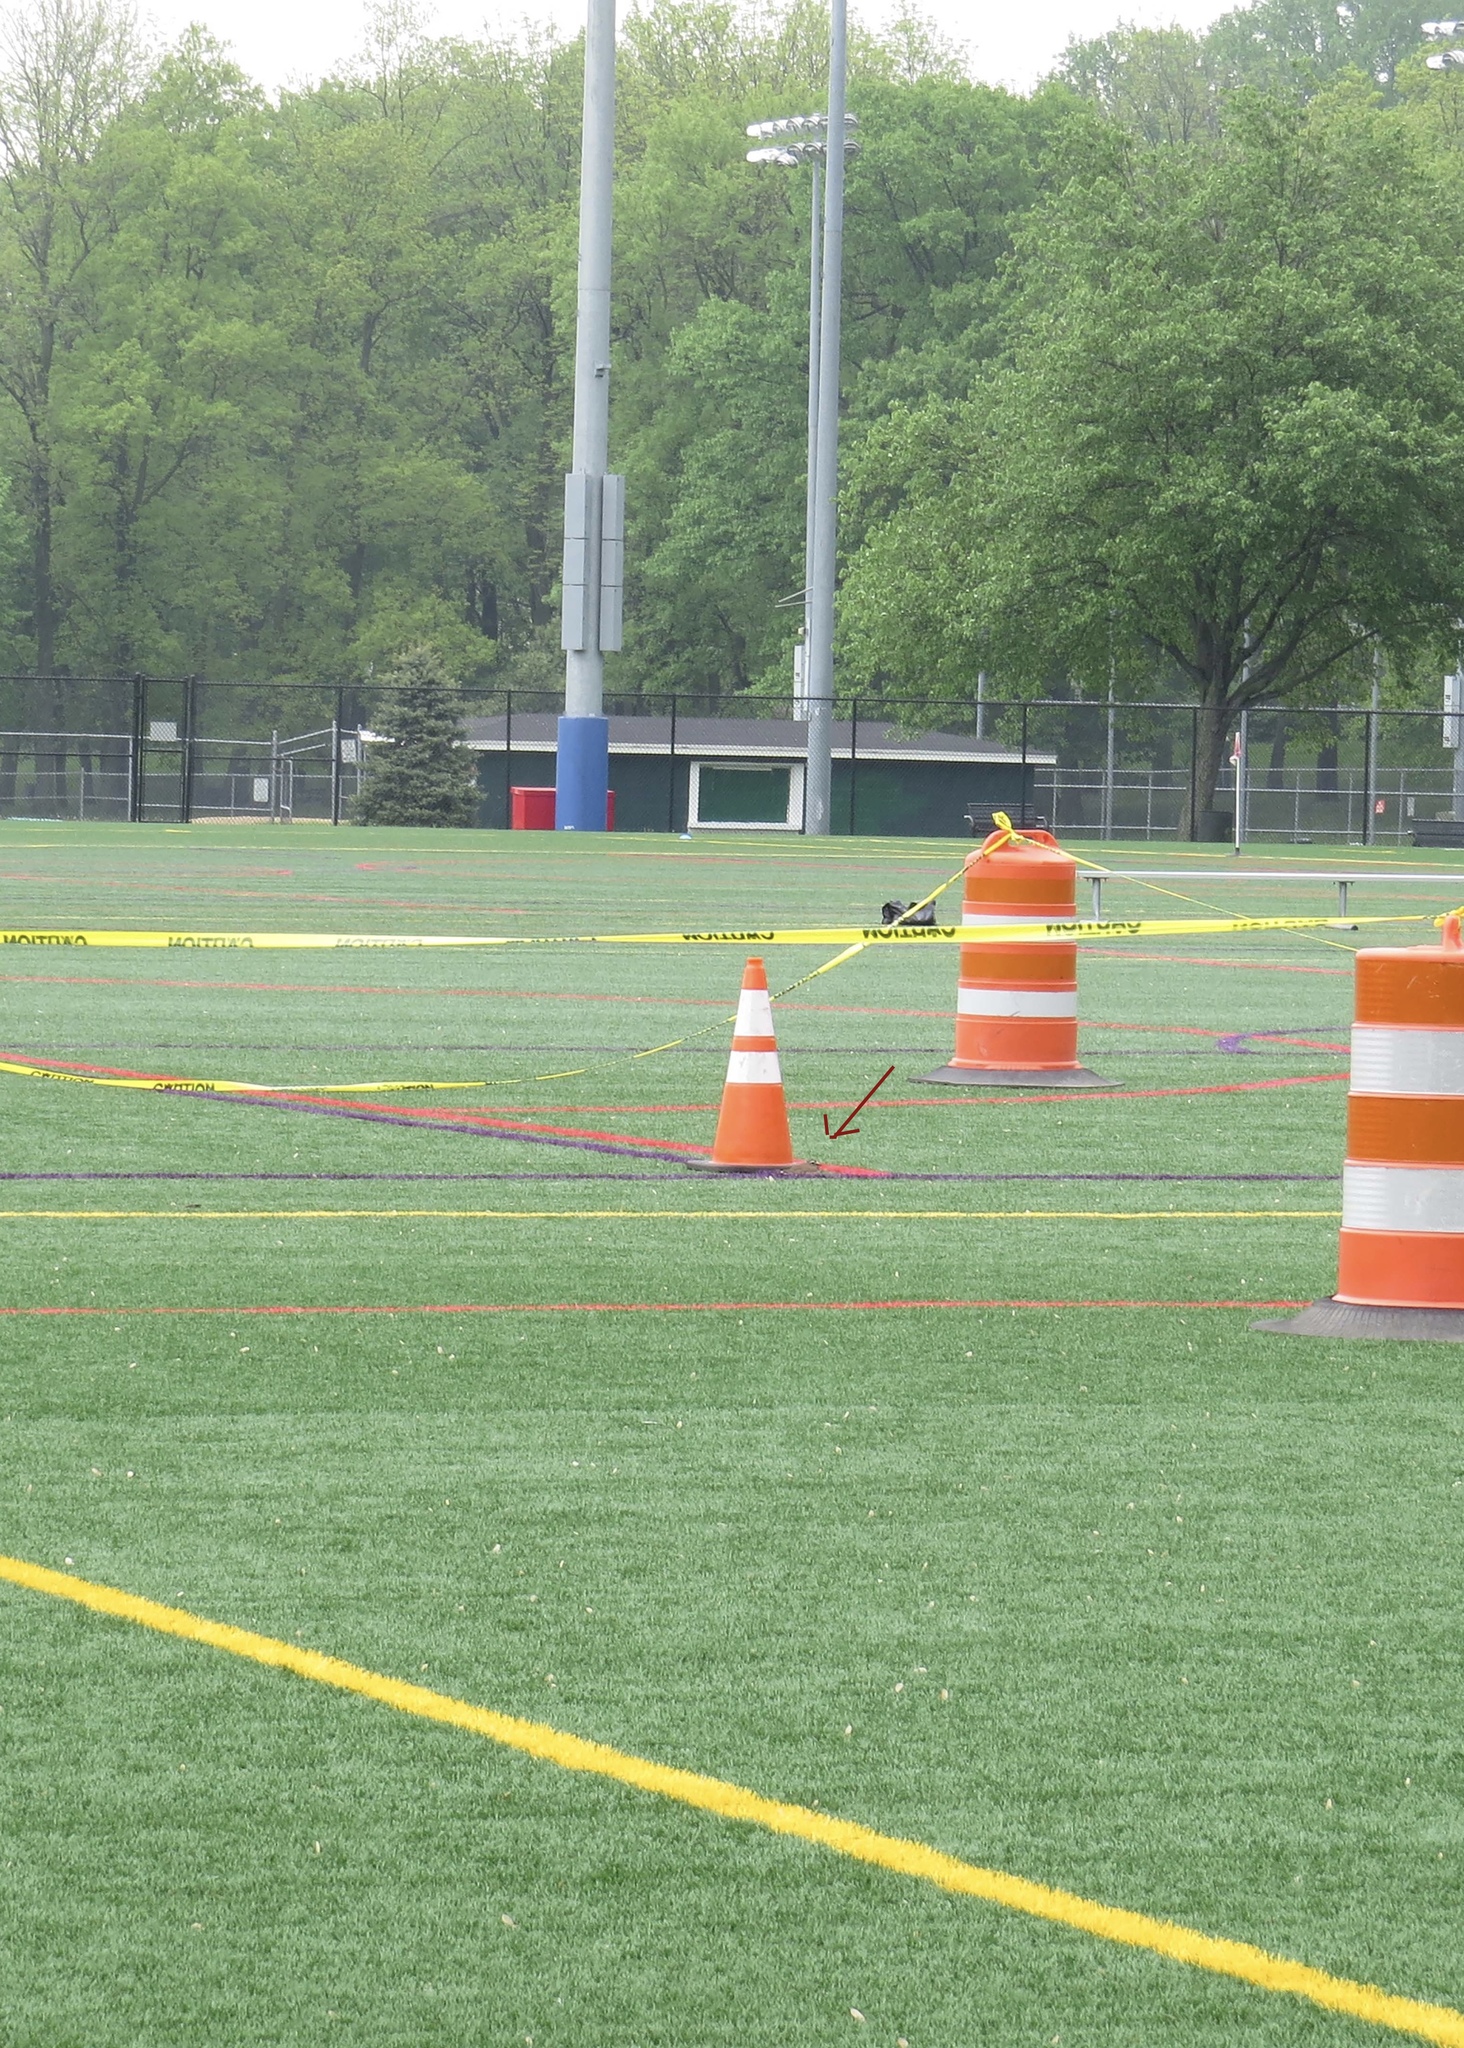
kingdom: Animalia
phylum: Chordata
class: Aves
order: Charadriiformes
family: Charadriidae
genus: Charadrius
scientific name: Charadrius vociferus
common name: Killdeer
